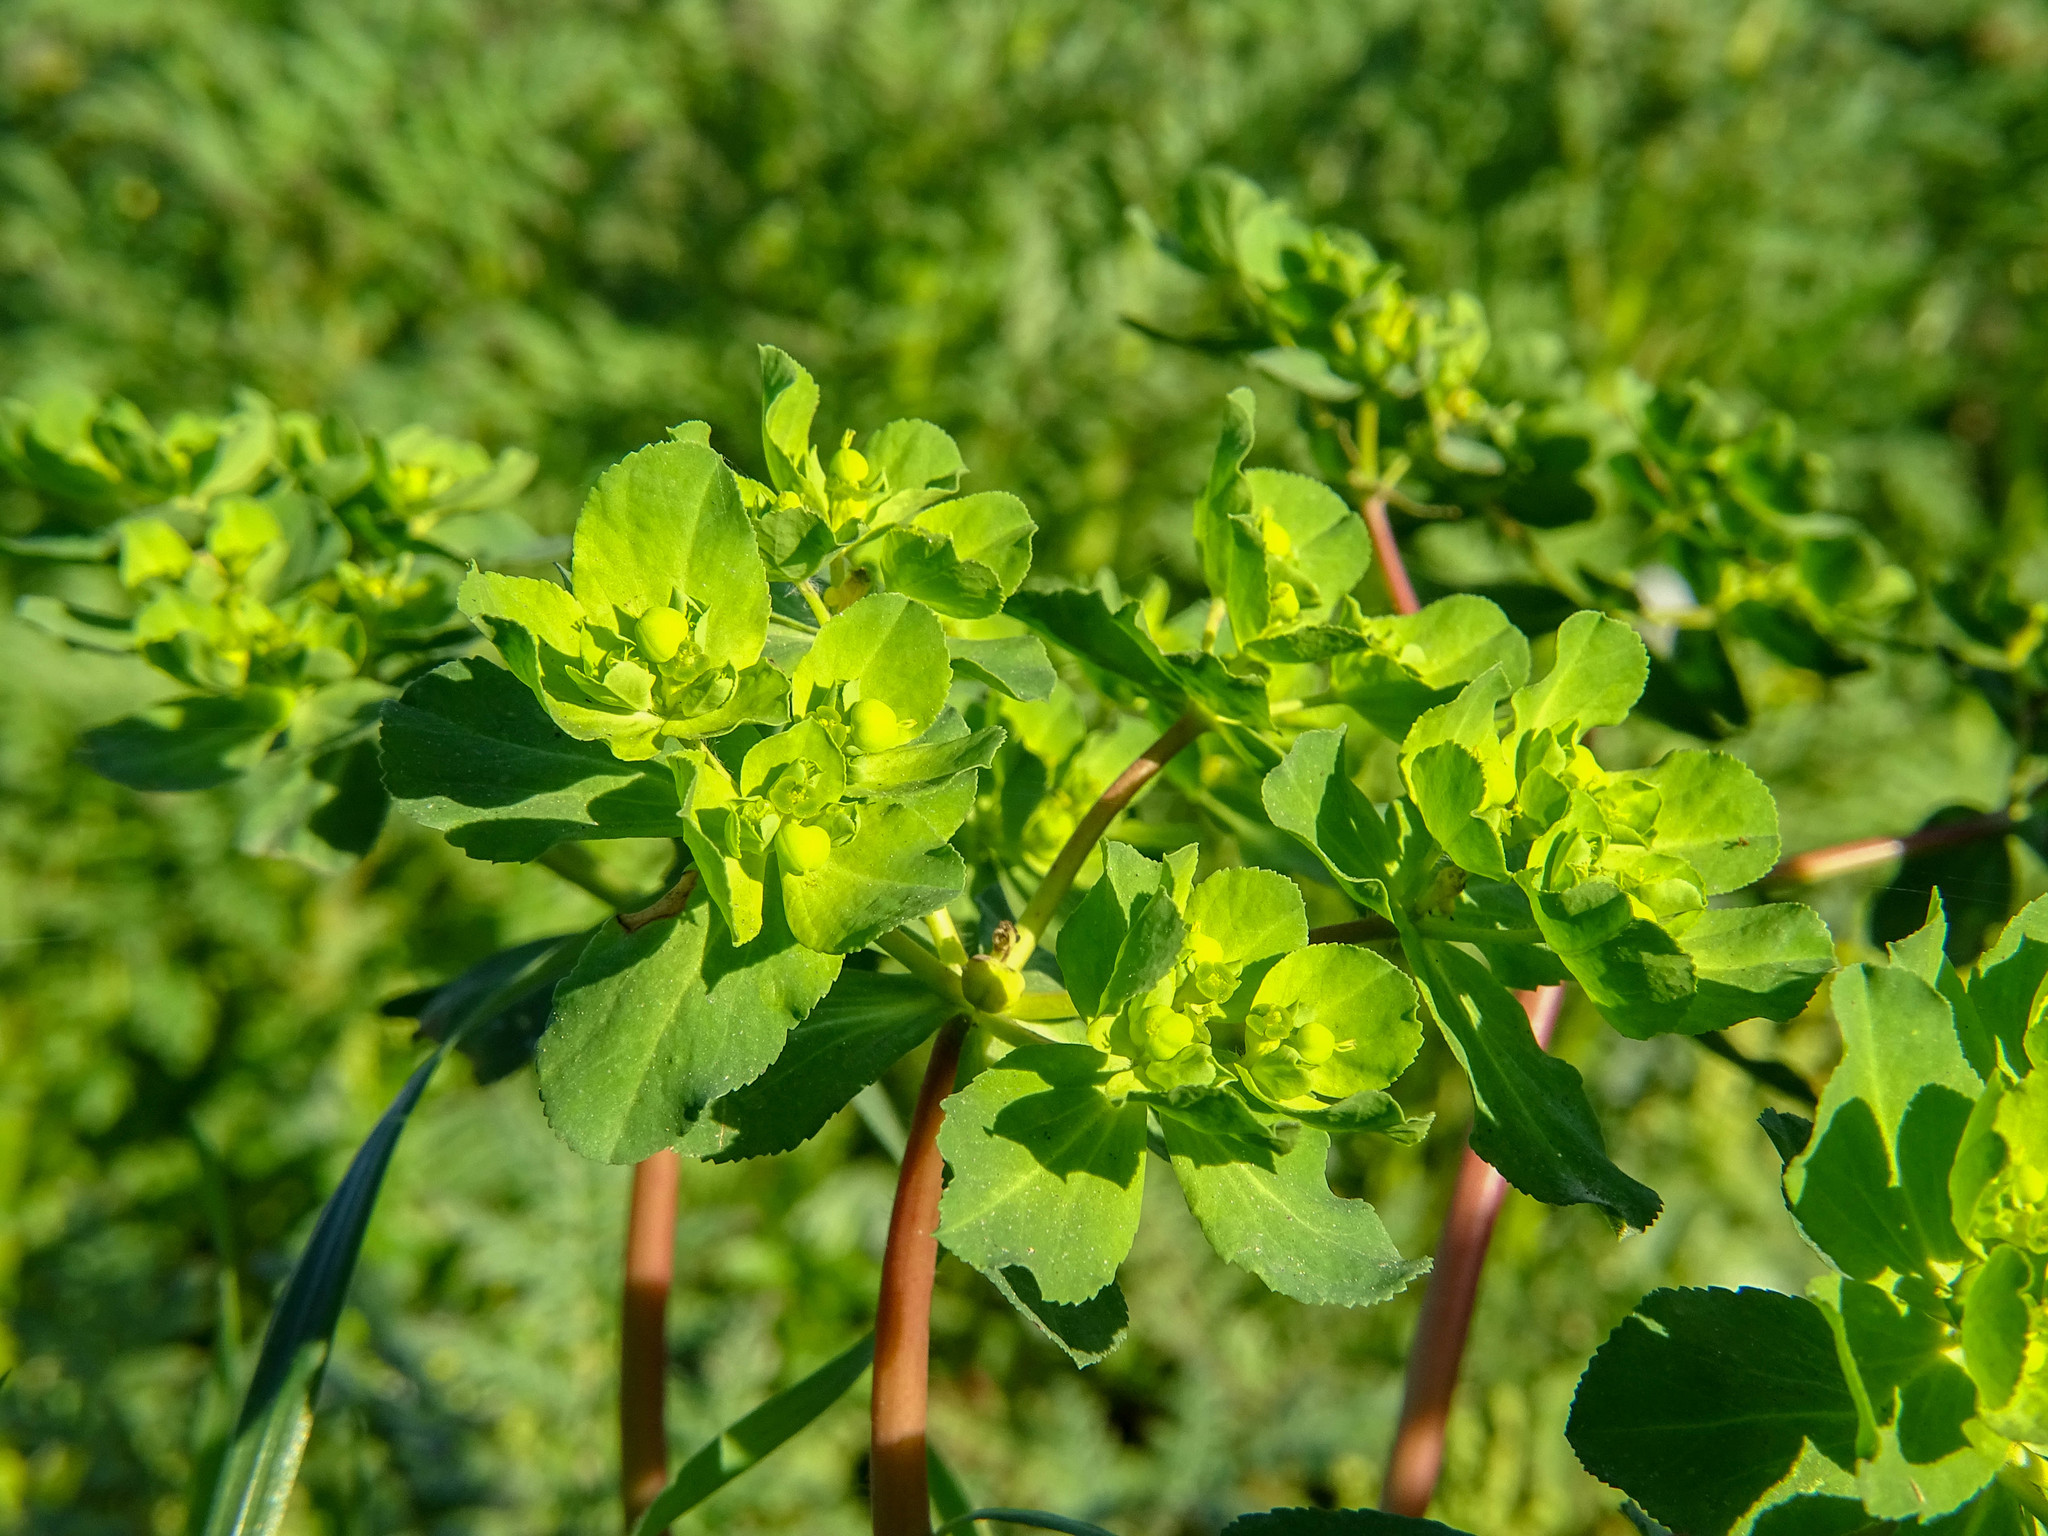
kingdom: Plantae
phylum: Tracheophyta
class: Magnoliopsida
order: Malpighiales
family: Euphorbiaceae
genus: Euphorbia
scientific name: Euphorbia helioscopia
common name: Sun spurge
